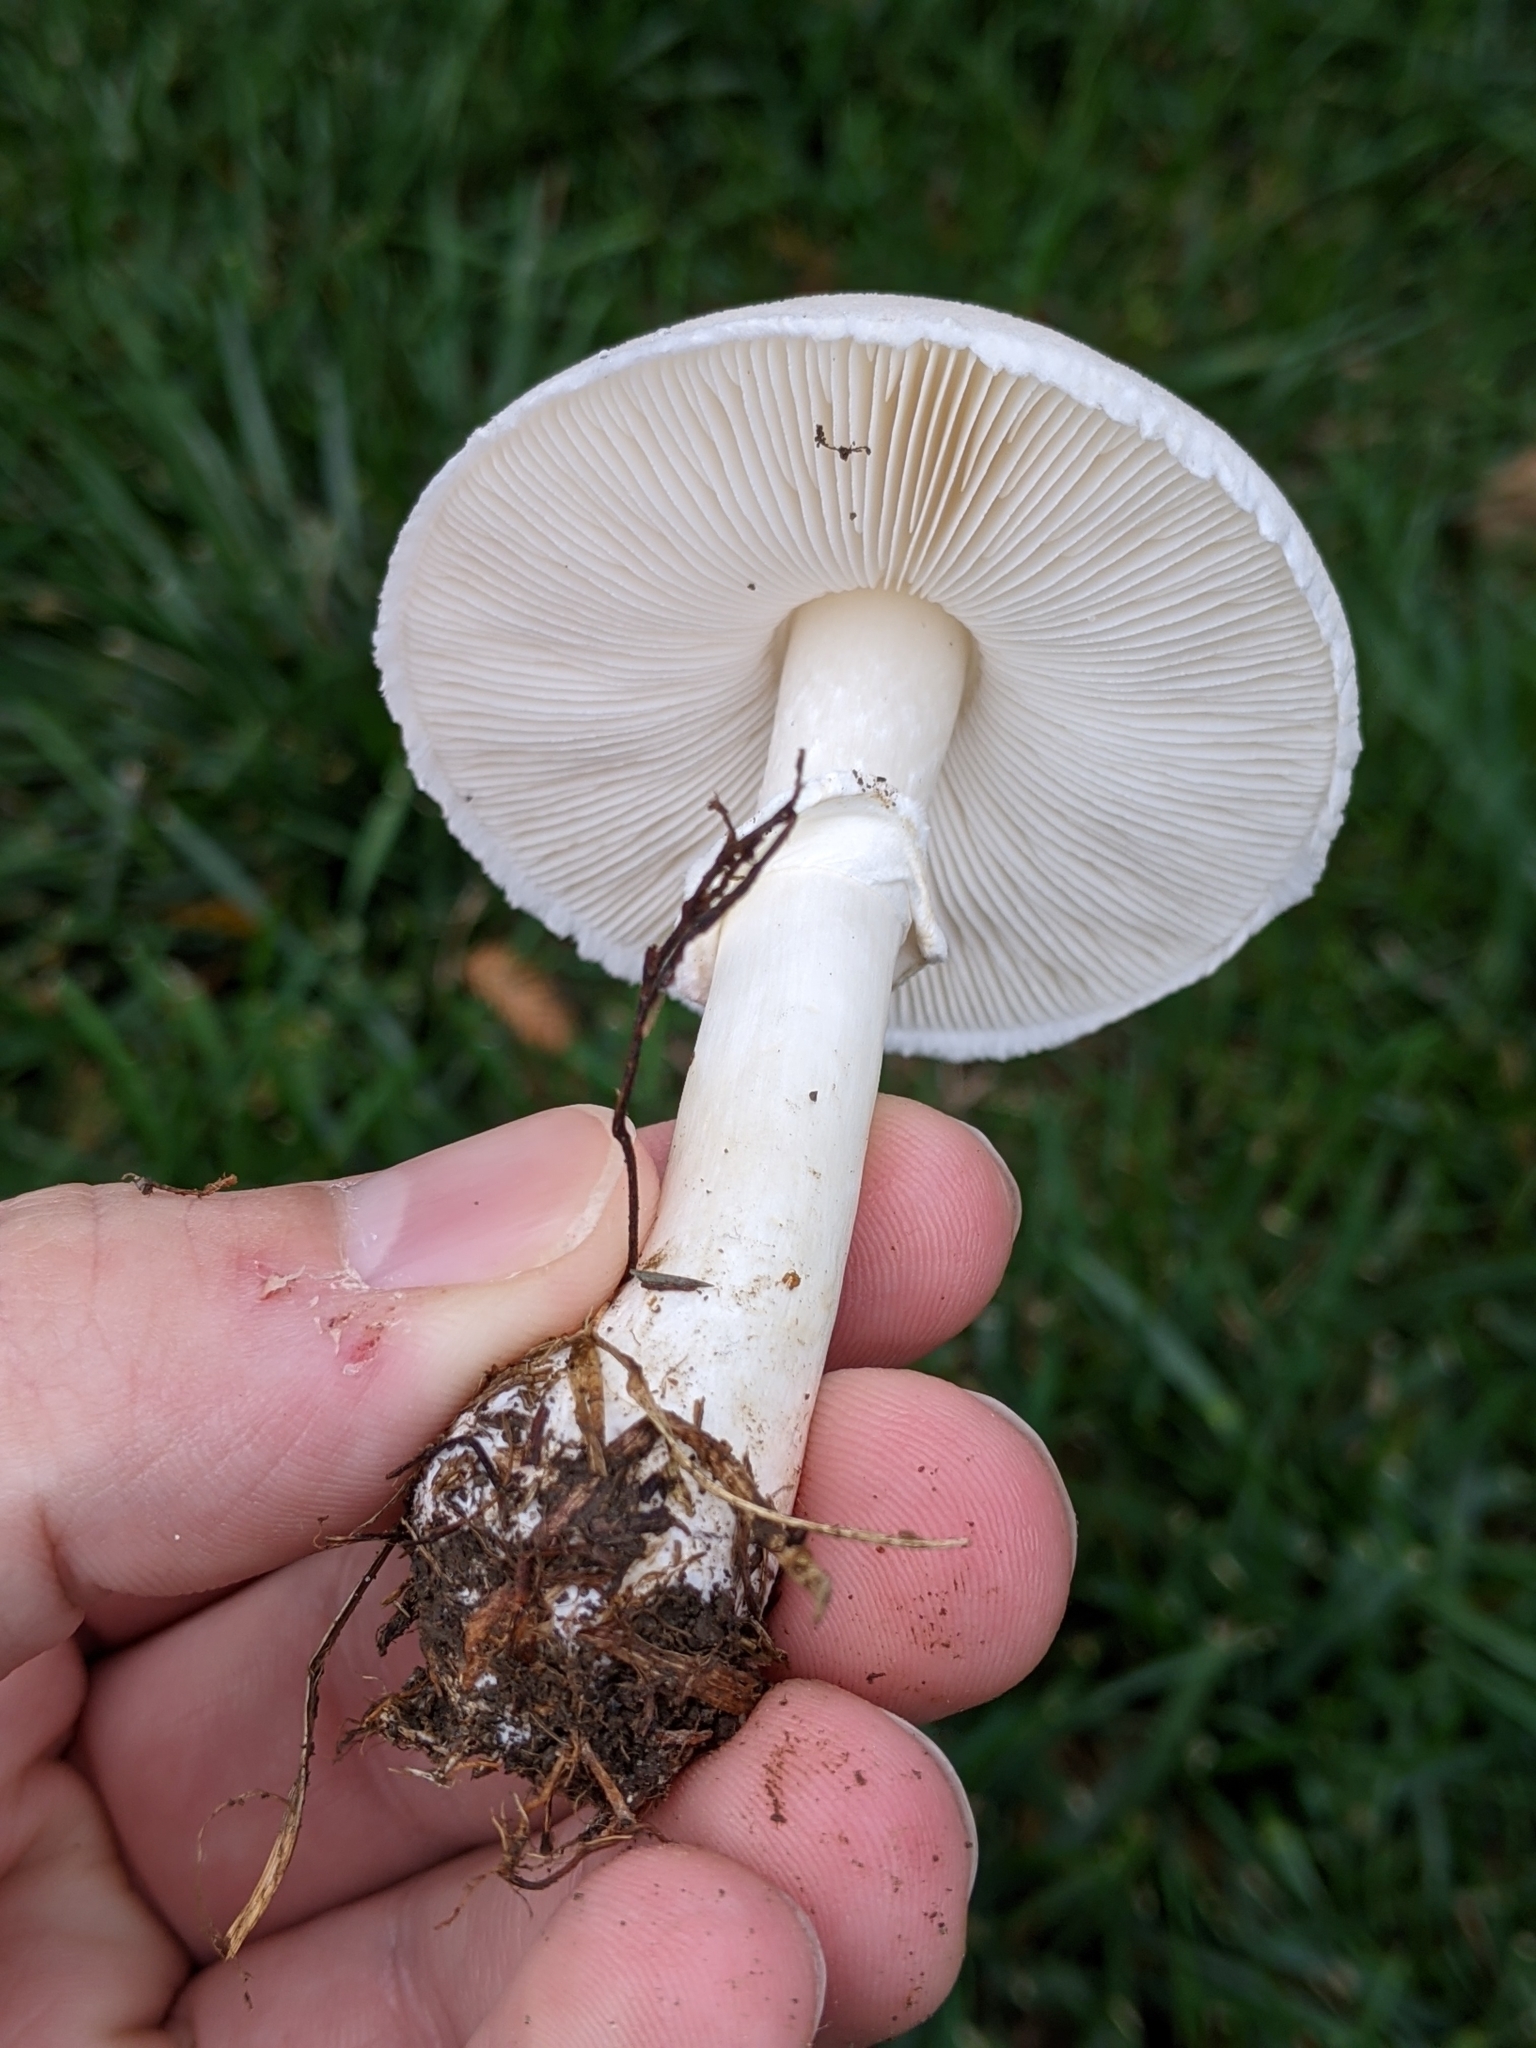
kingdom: Fungi
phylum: Basidiomycota
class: Agaricomycetes
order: Agaricales
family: Agaricaceae
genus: Leucoagaricus
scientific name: Leucoagaricus leucothites
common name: White dapperling
